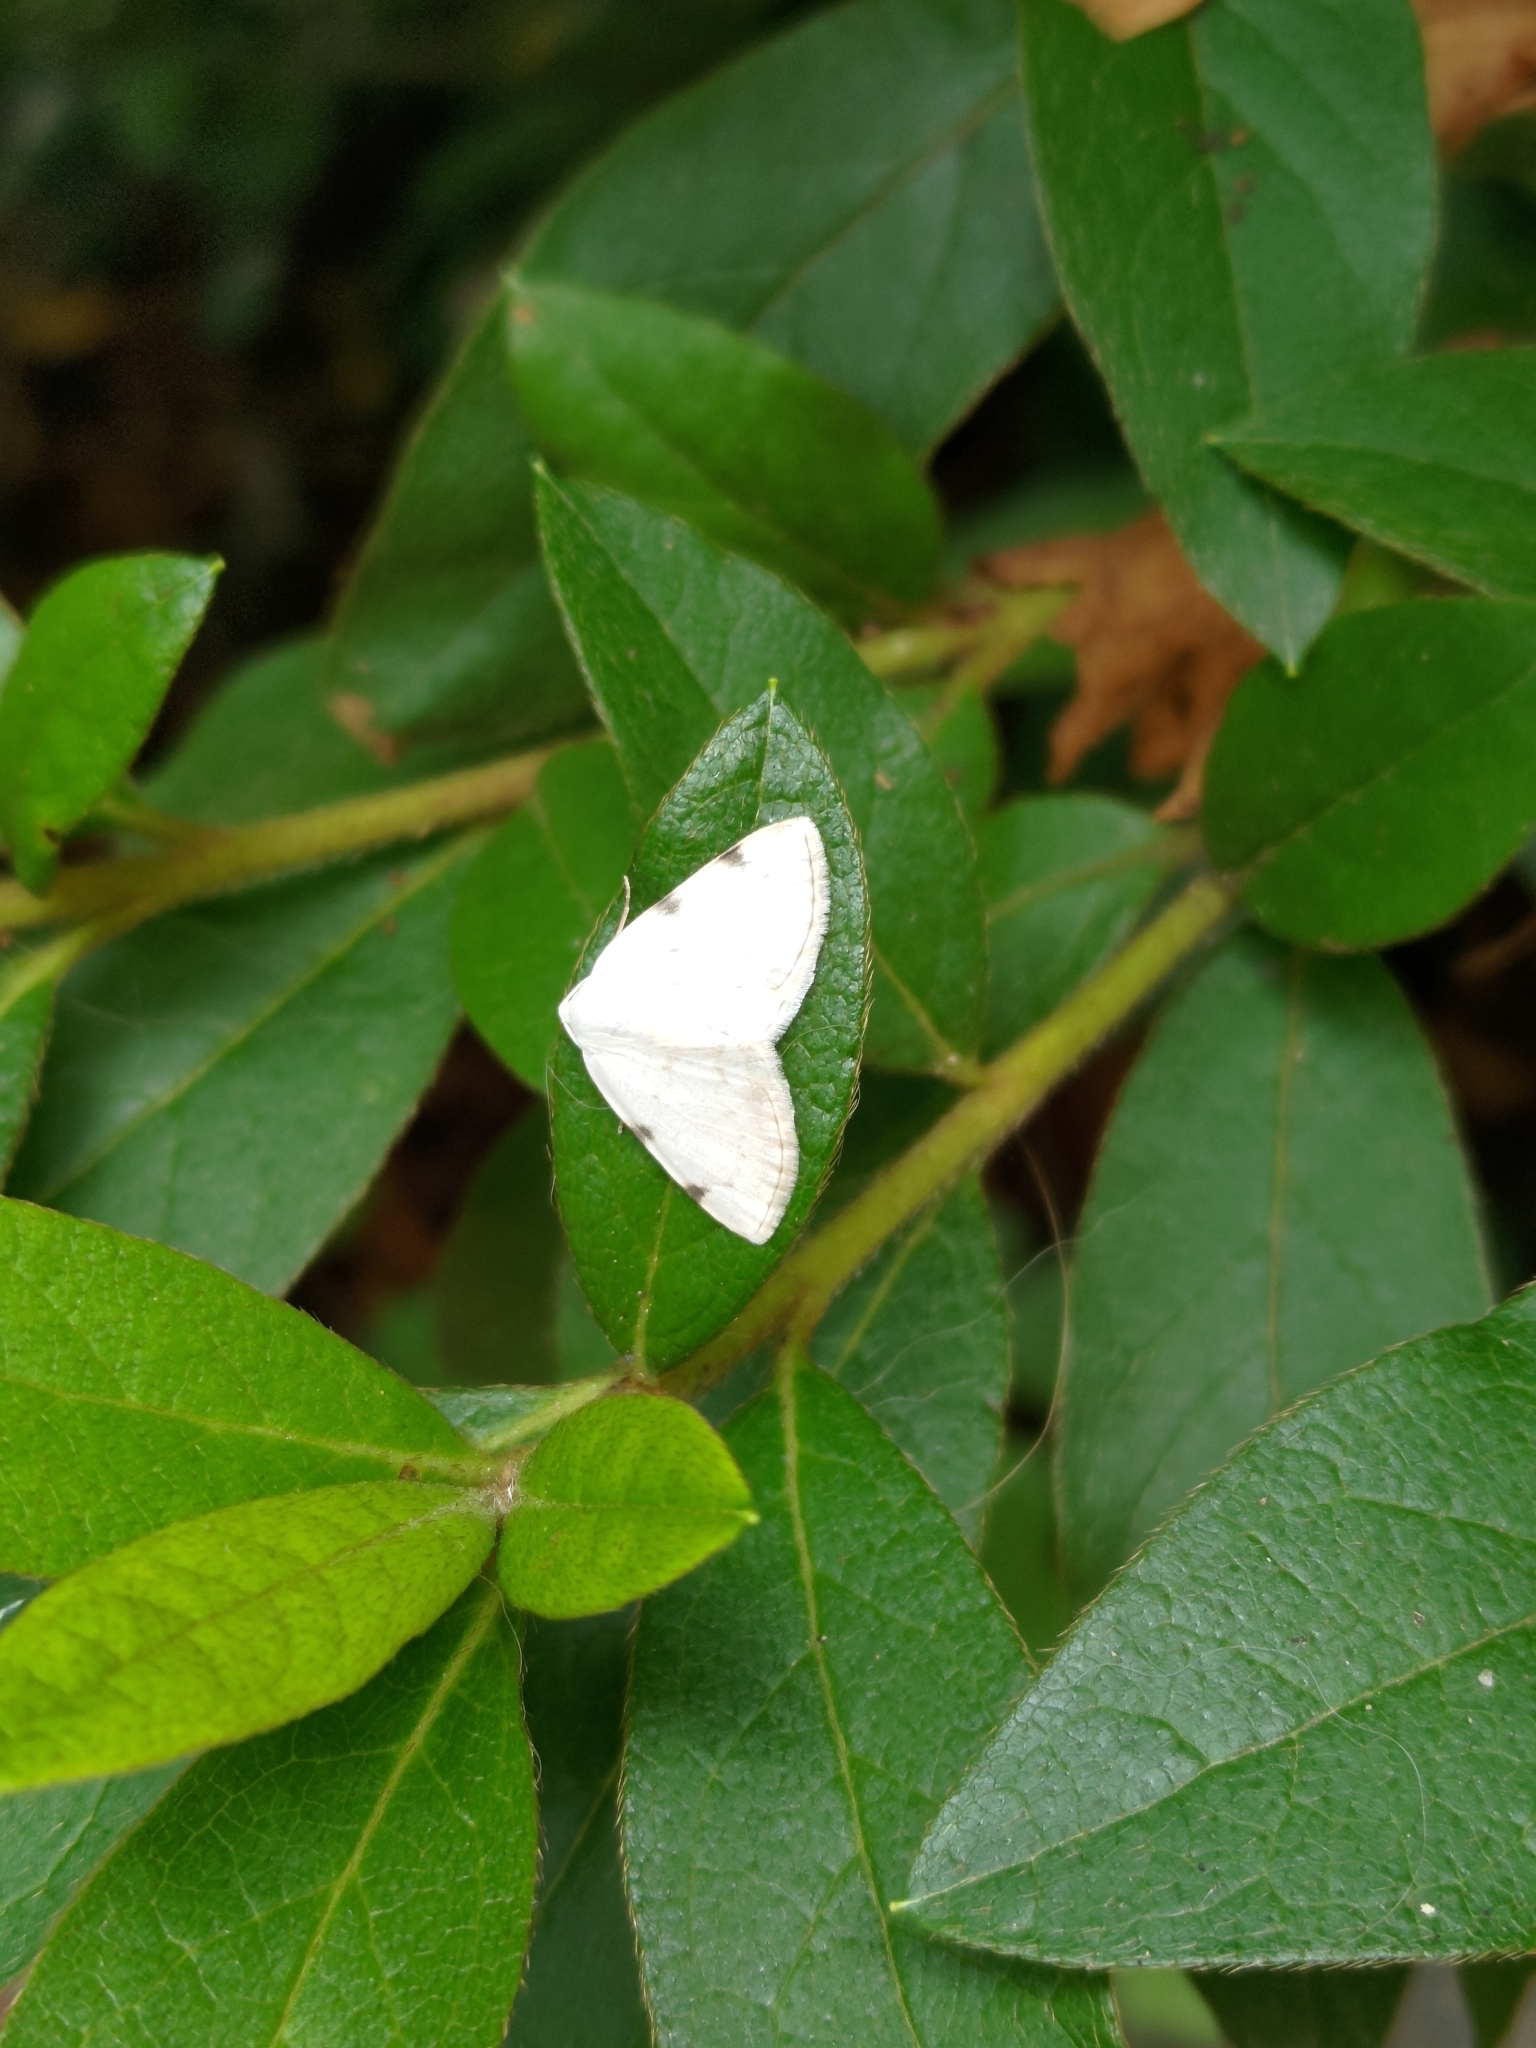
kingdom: Animalia
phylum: Arthropoda
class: Insecta
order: Lepidoptera
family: Geometridae
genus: Lomographa
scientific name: Lomographa bimaculata
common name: White-pinion spotted
